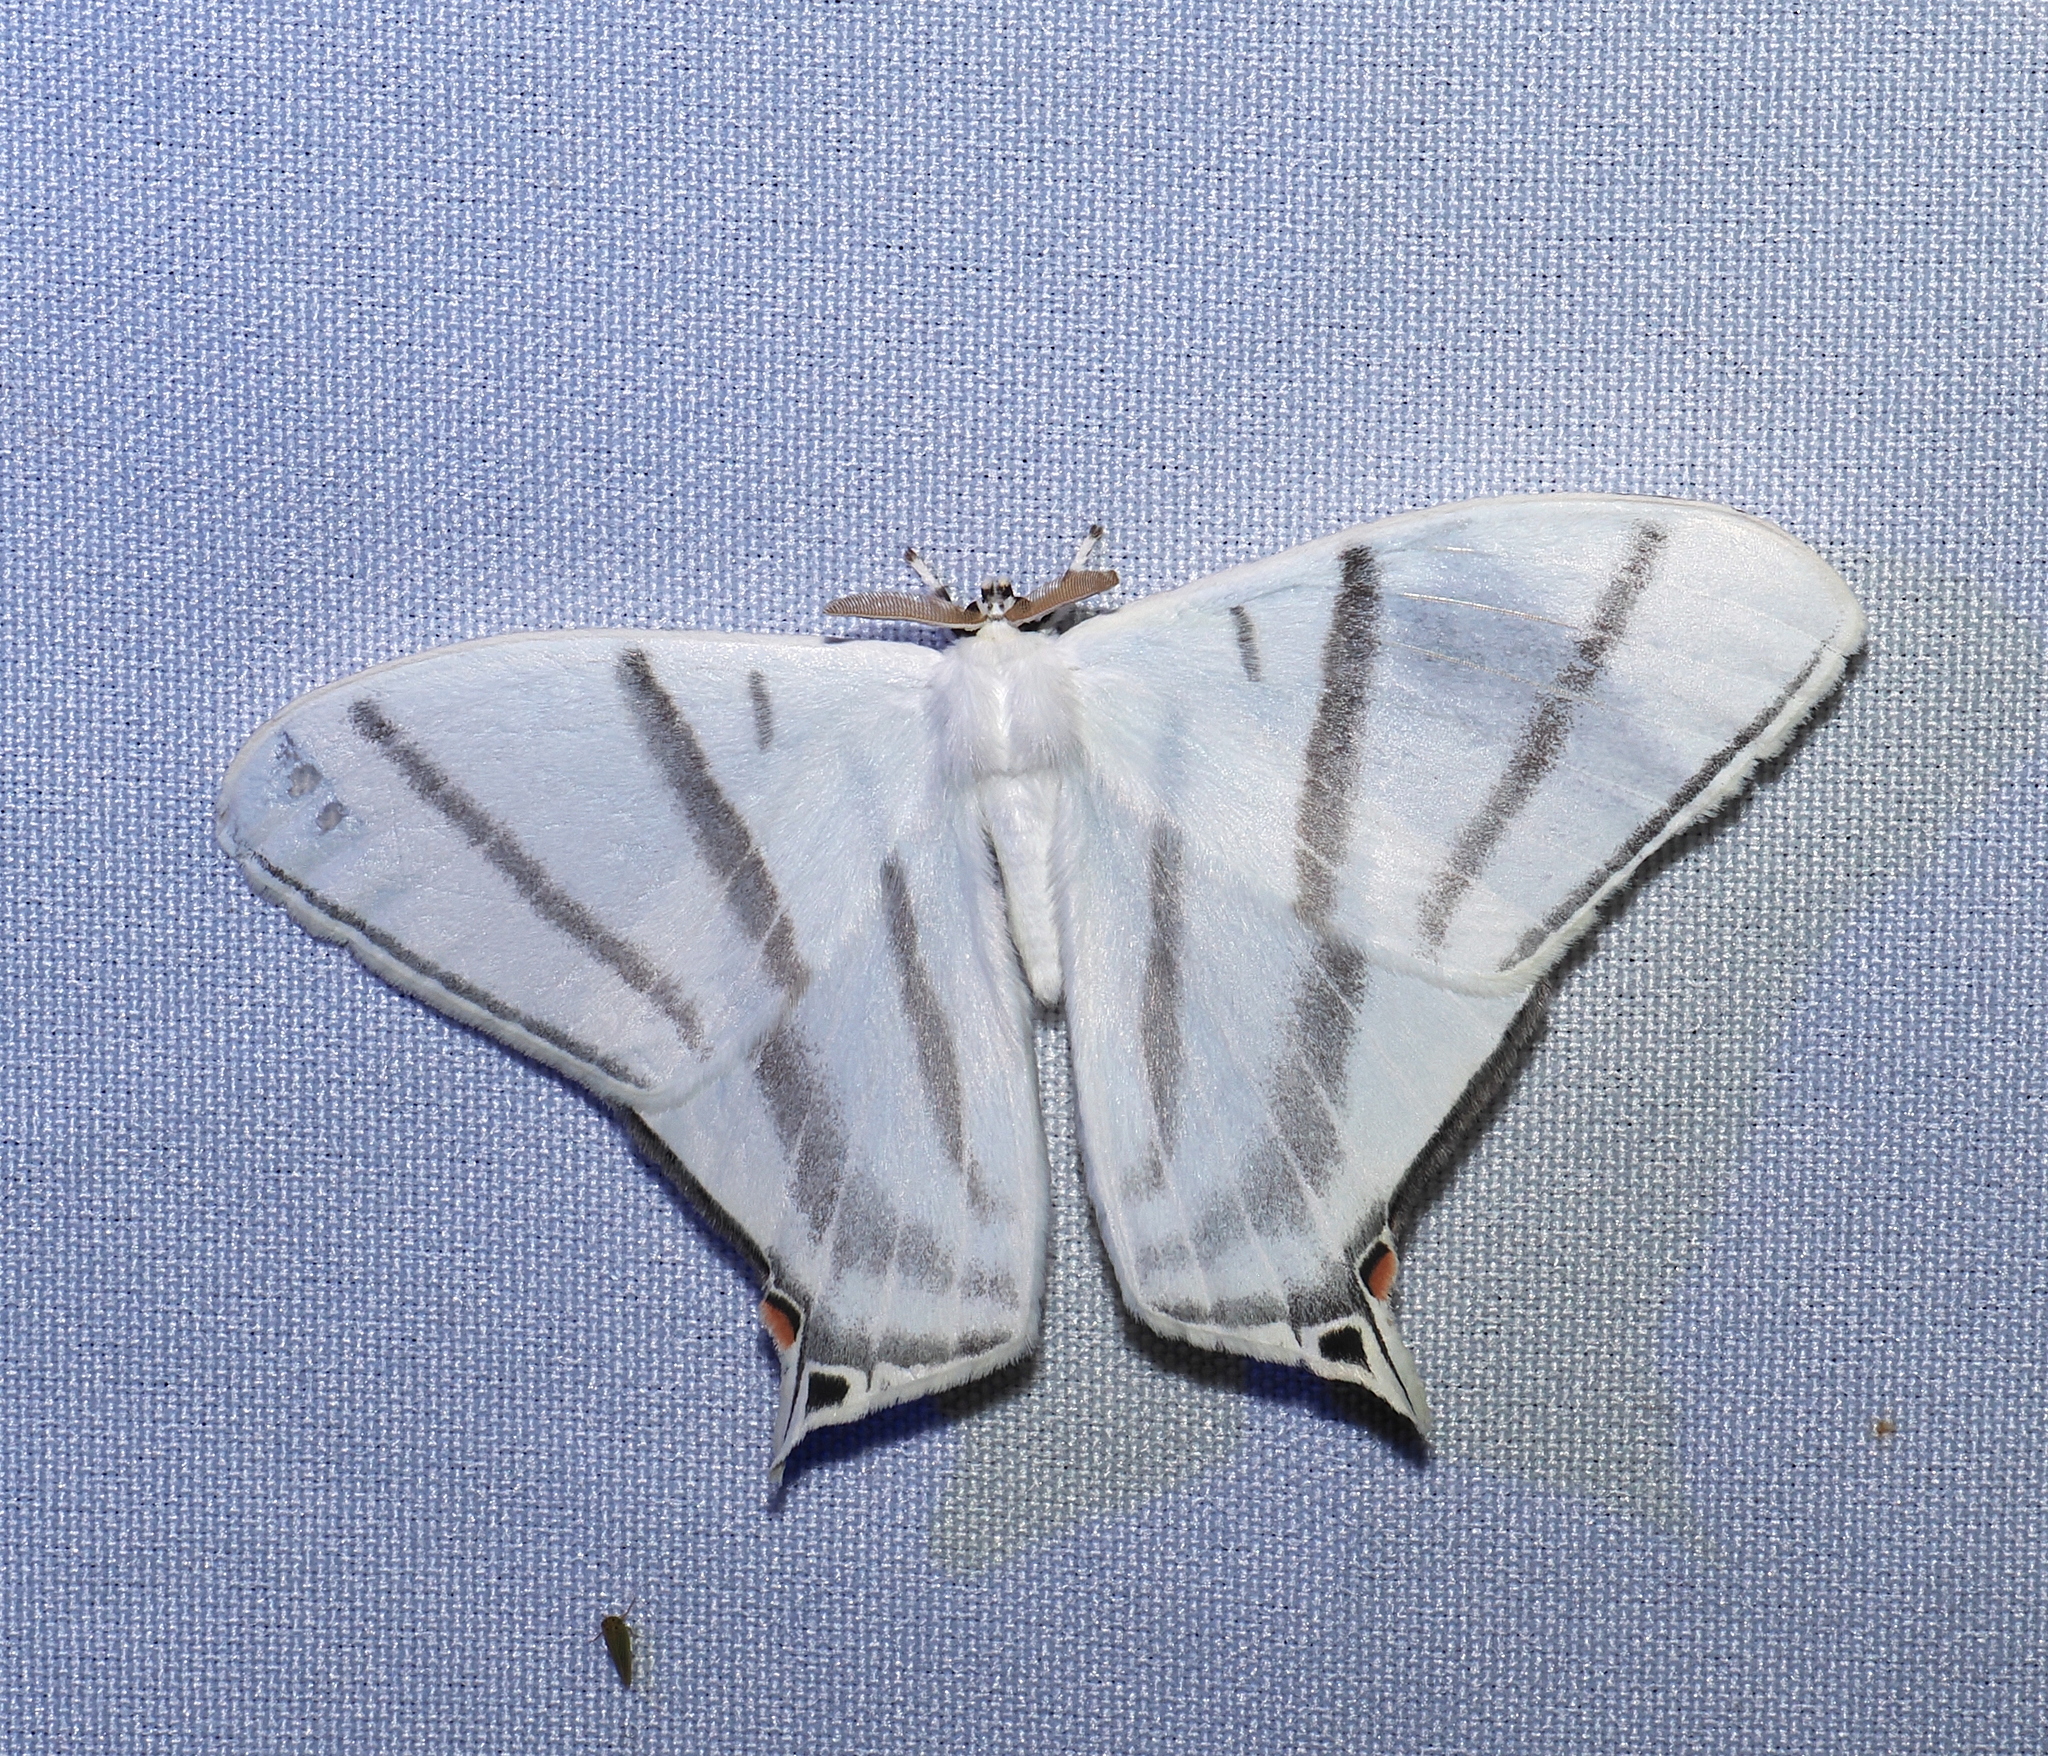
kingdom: Animalia
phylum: Arthropoda
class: Insecta
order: Lepidoptera
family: Saturniidae
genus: Therinia
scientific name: Therinia transversaria
